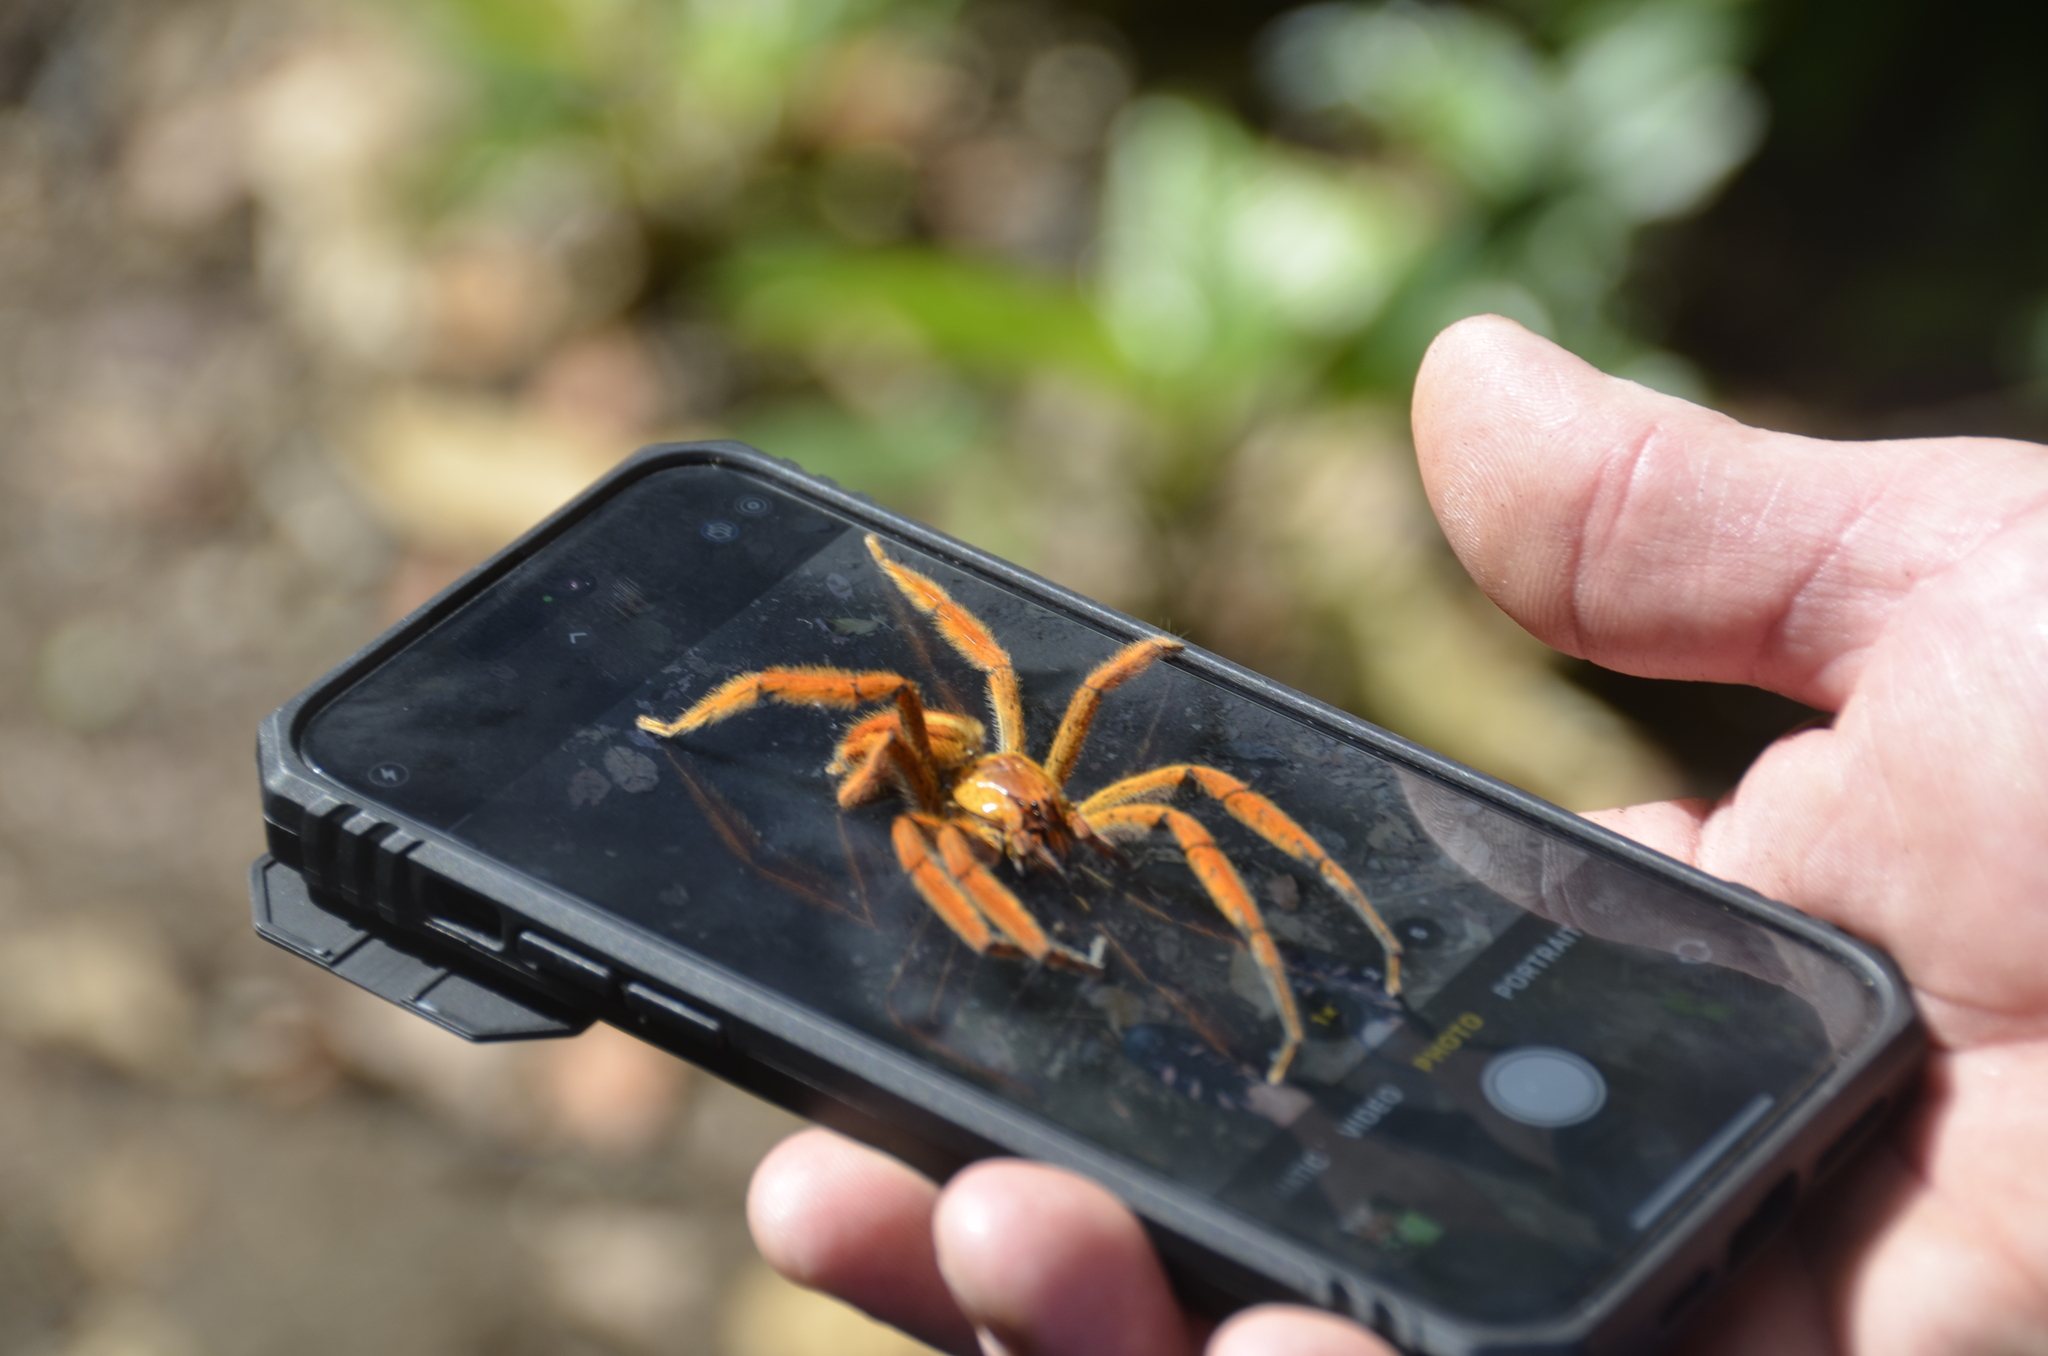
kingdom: Animalia
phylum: Arthropoda
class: Arachnida
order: Araneae
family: Trechaleidae
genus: Cupiennius
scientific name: Cupiennius getazi
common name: Wandering spiders
